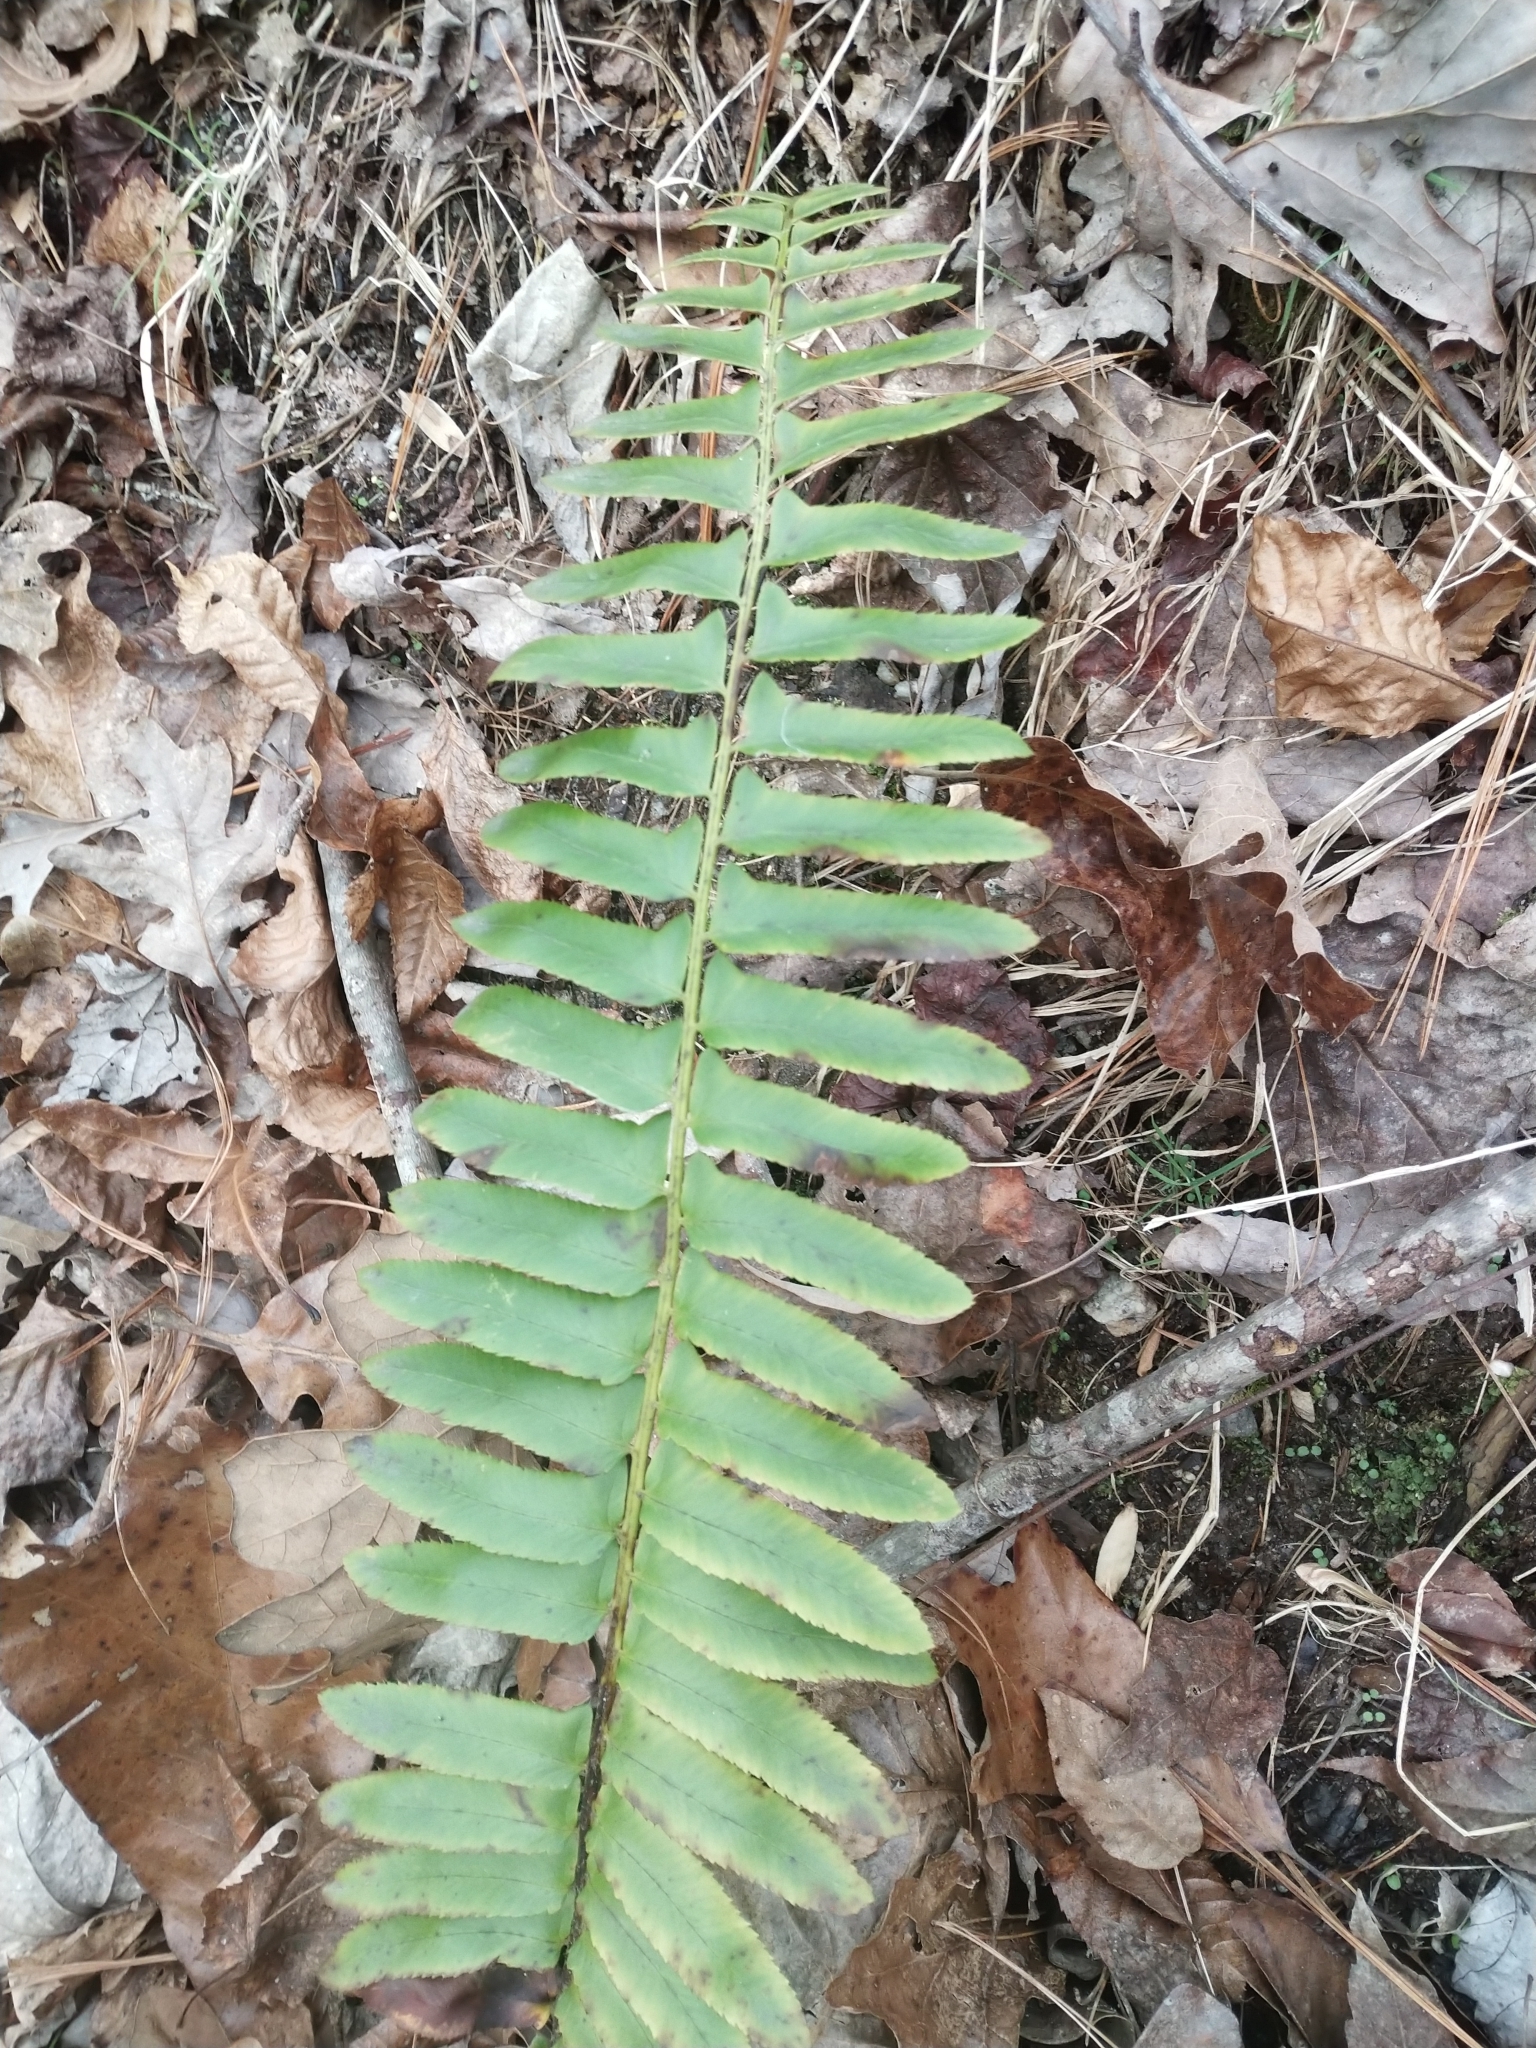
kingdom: Plantae
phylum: Tracheophyta
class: Polypodiopsida
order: Polypodiales
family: Dryopteridaceae
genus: Polystichum
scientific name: Polystichum acrostichoides
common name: Christmas fern
